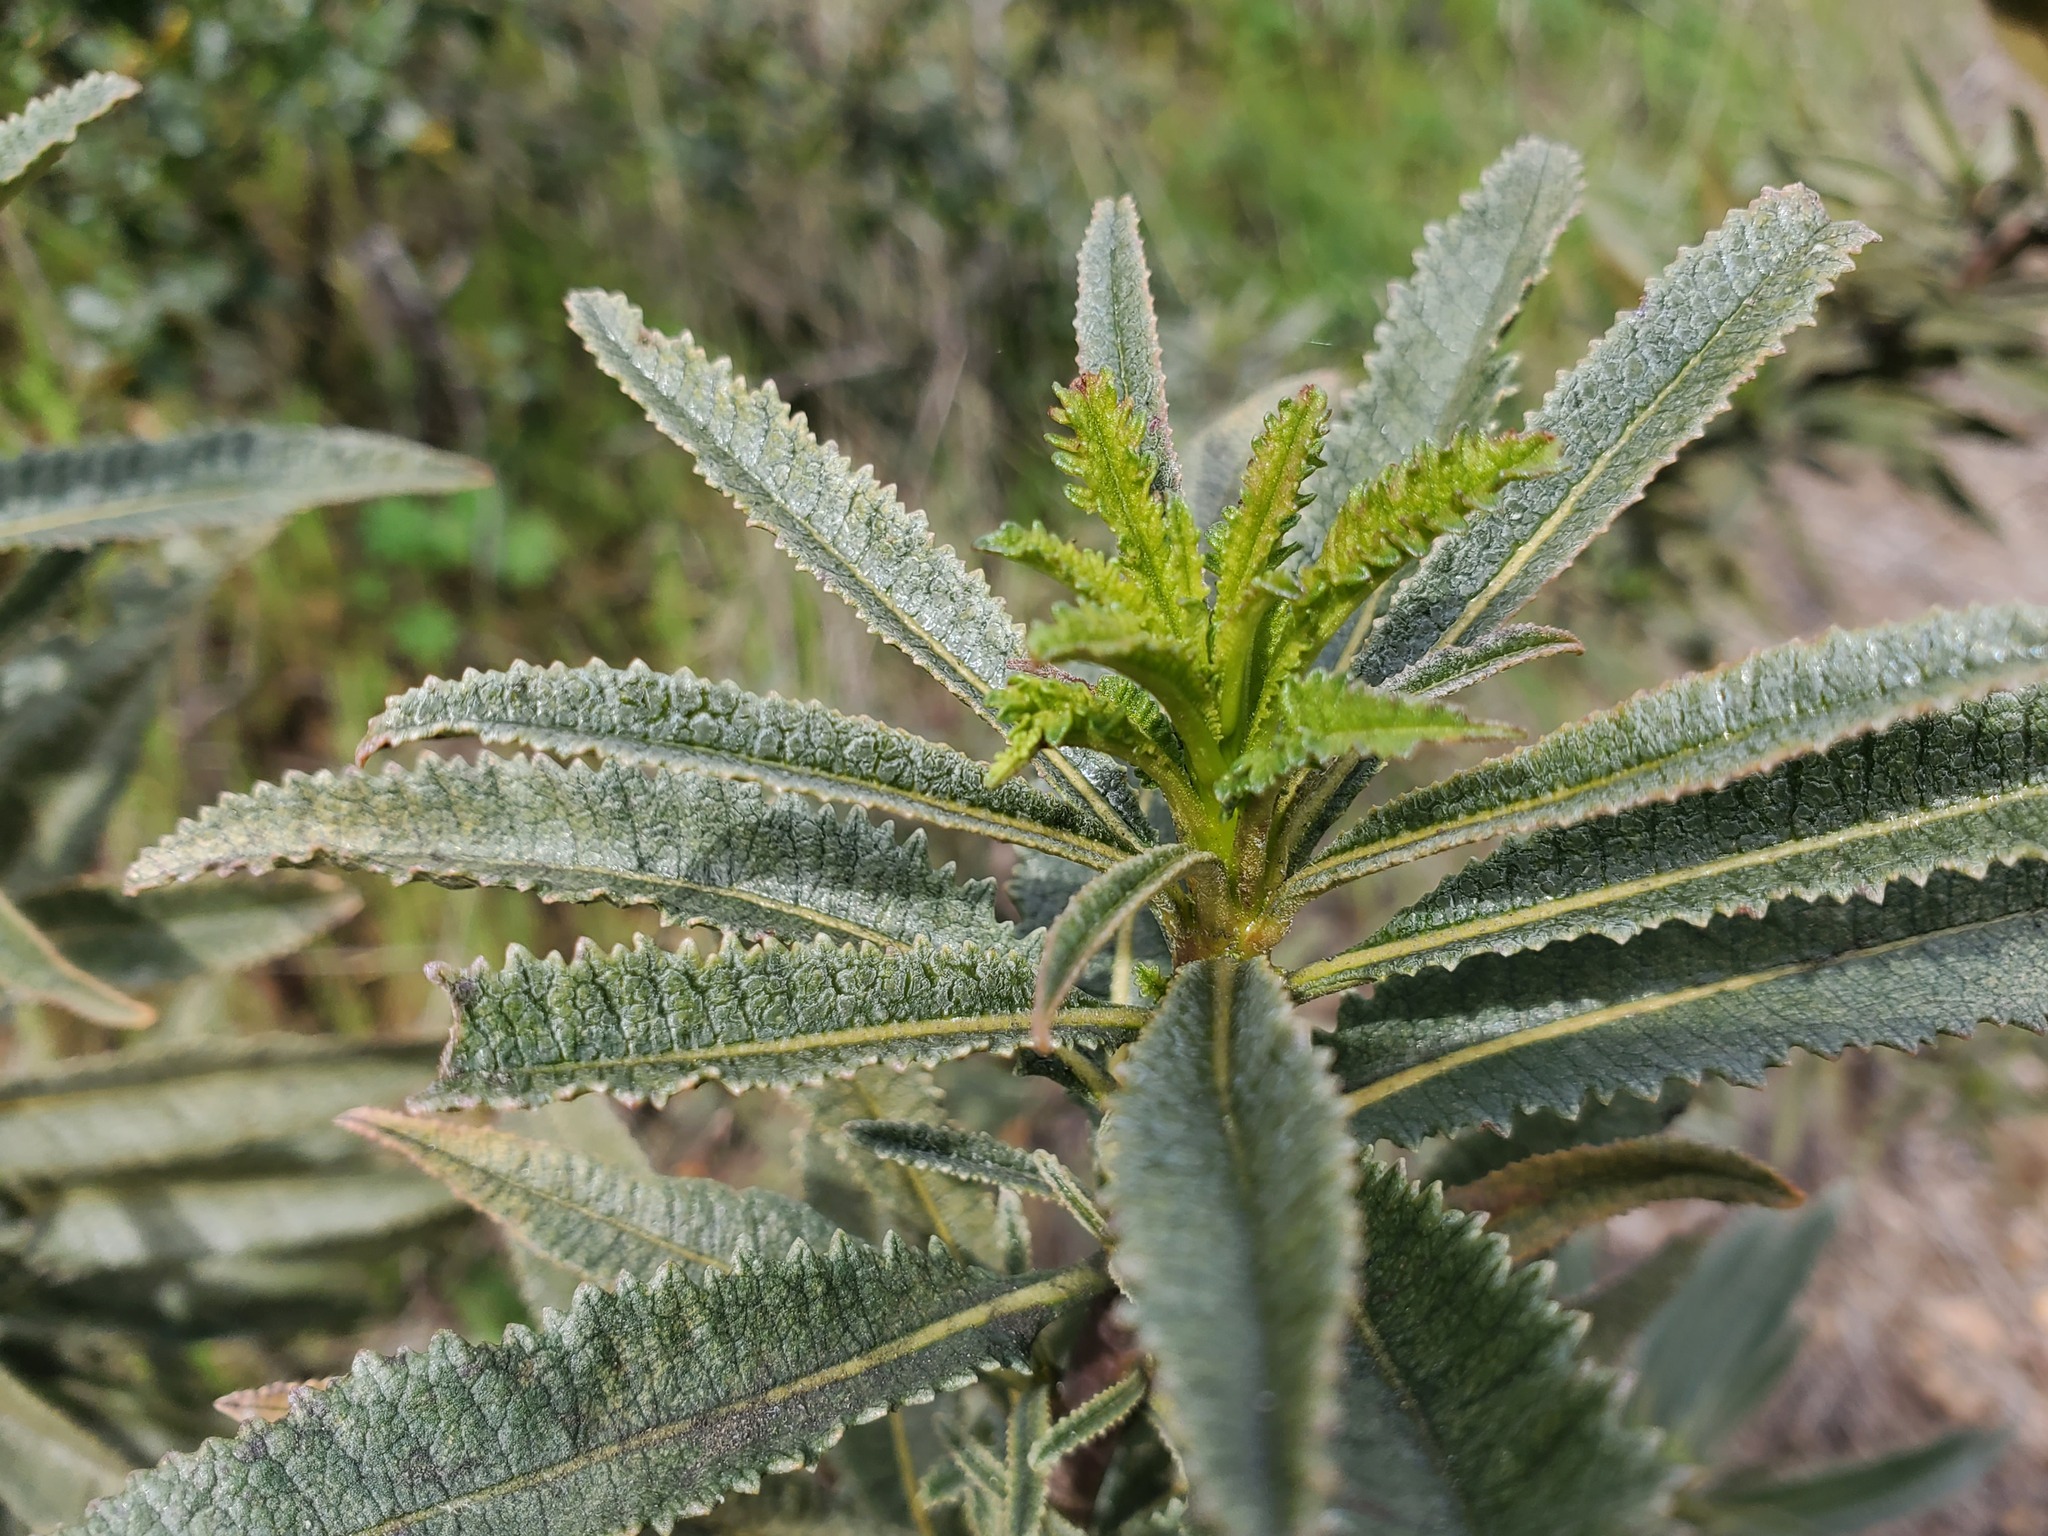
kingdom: Plantae
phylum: Tracheophyta
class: Magnoliopsida
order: Boraginales
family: Namaceae
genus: Eriodictyon
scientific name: Eriodictyon californicum
